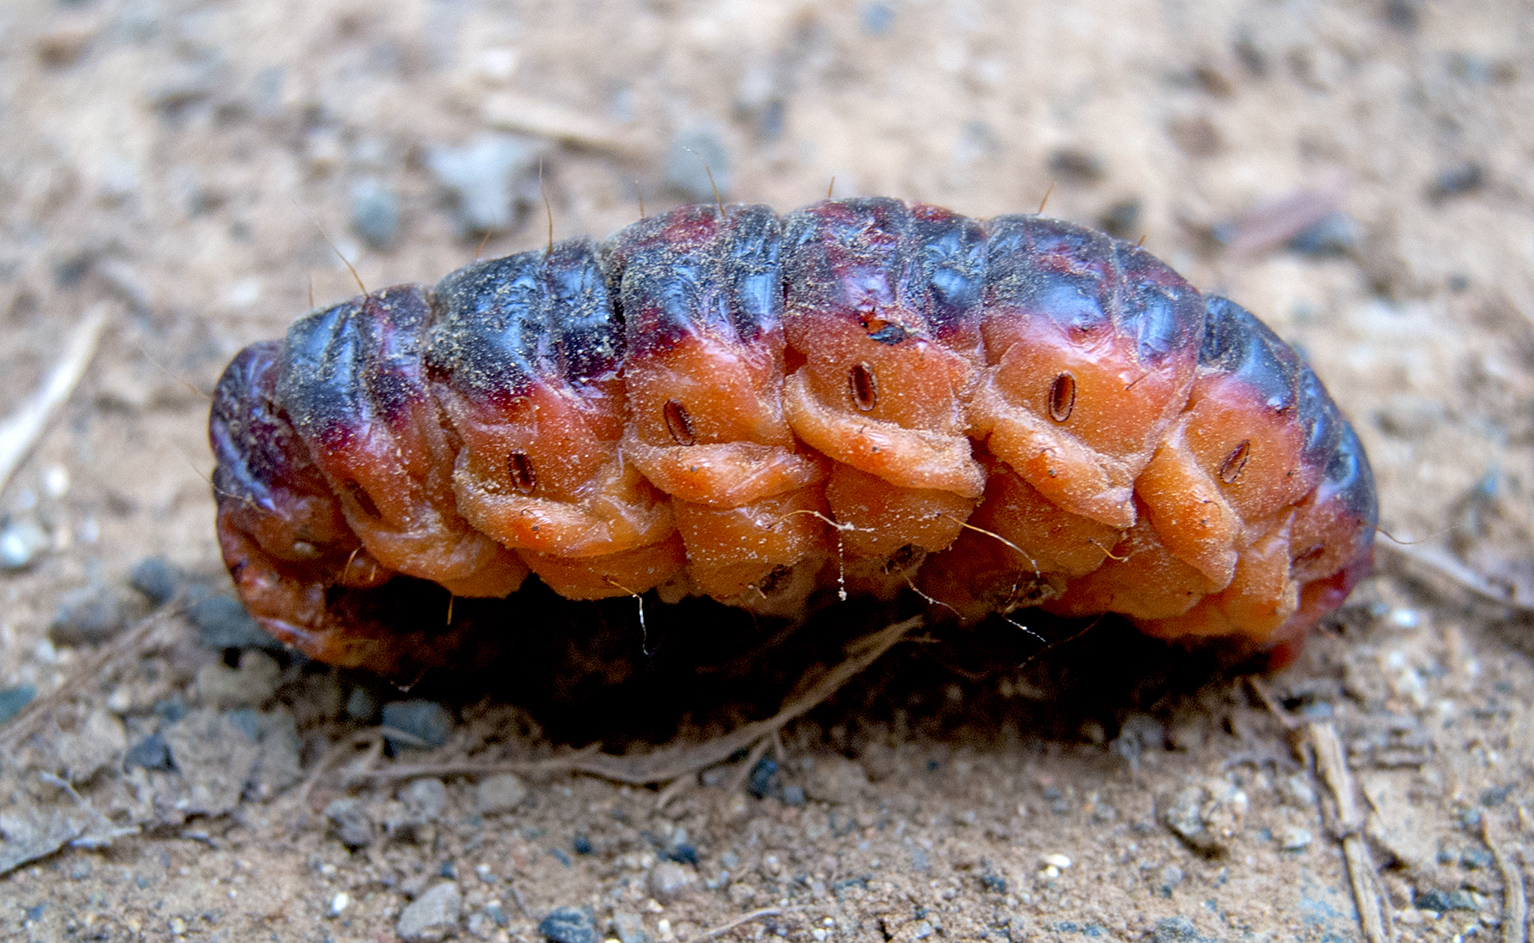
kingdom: Animalia
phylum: Arthropoda
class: Insecta
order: Lepidoptera
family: Cossidae
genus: Cossus
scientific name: Cossus cossus
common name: Goat moth
